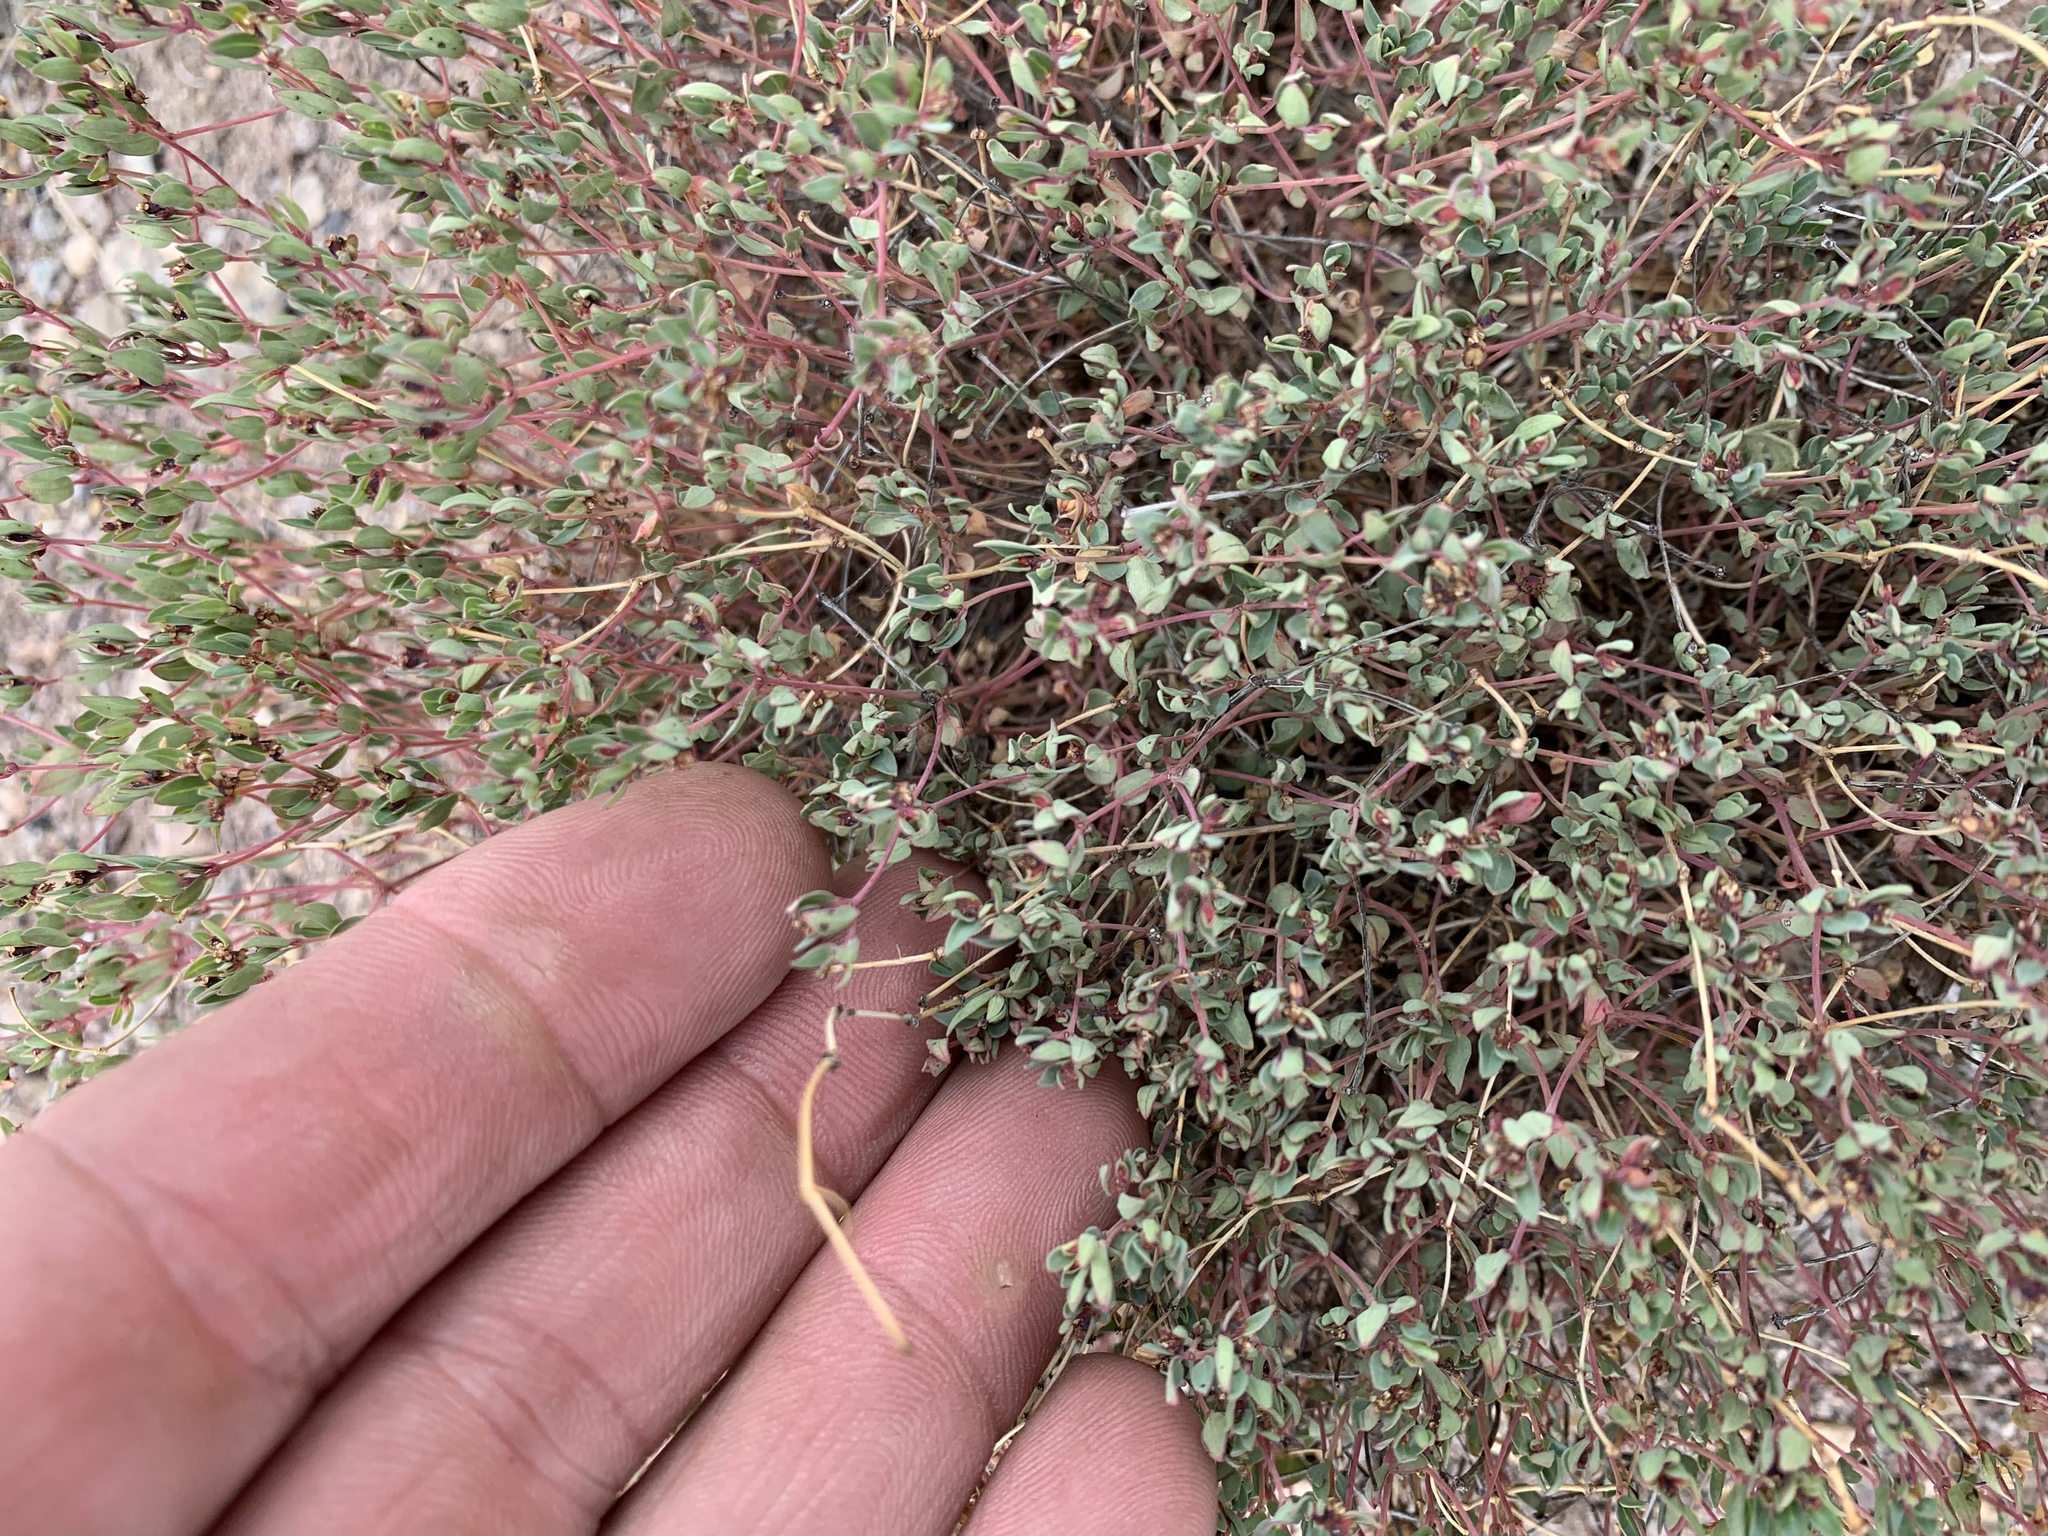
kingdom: Plantae
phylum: Tracheophyta
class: Magnoliopsida
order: Malpighiales
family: Euphorbiaceae
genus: Euphorbia
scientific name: Euphorbia fendleri
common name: Fendler's euphorbia
